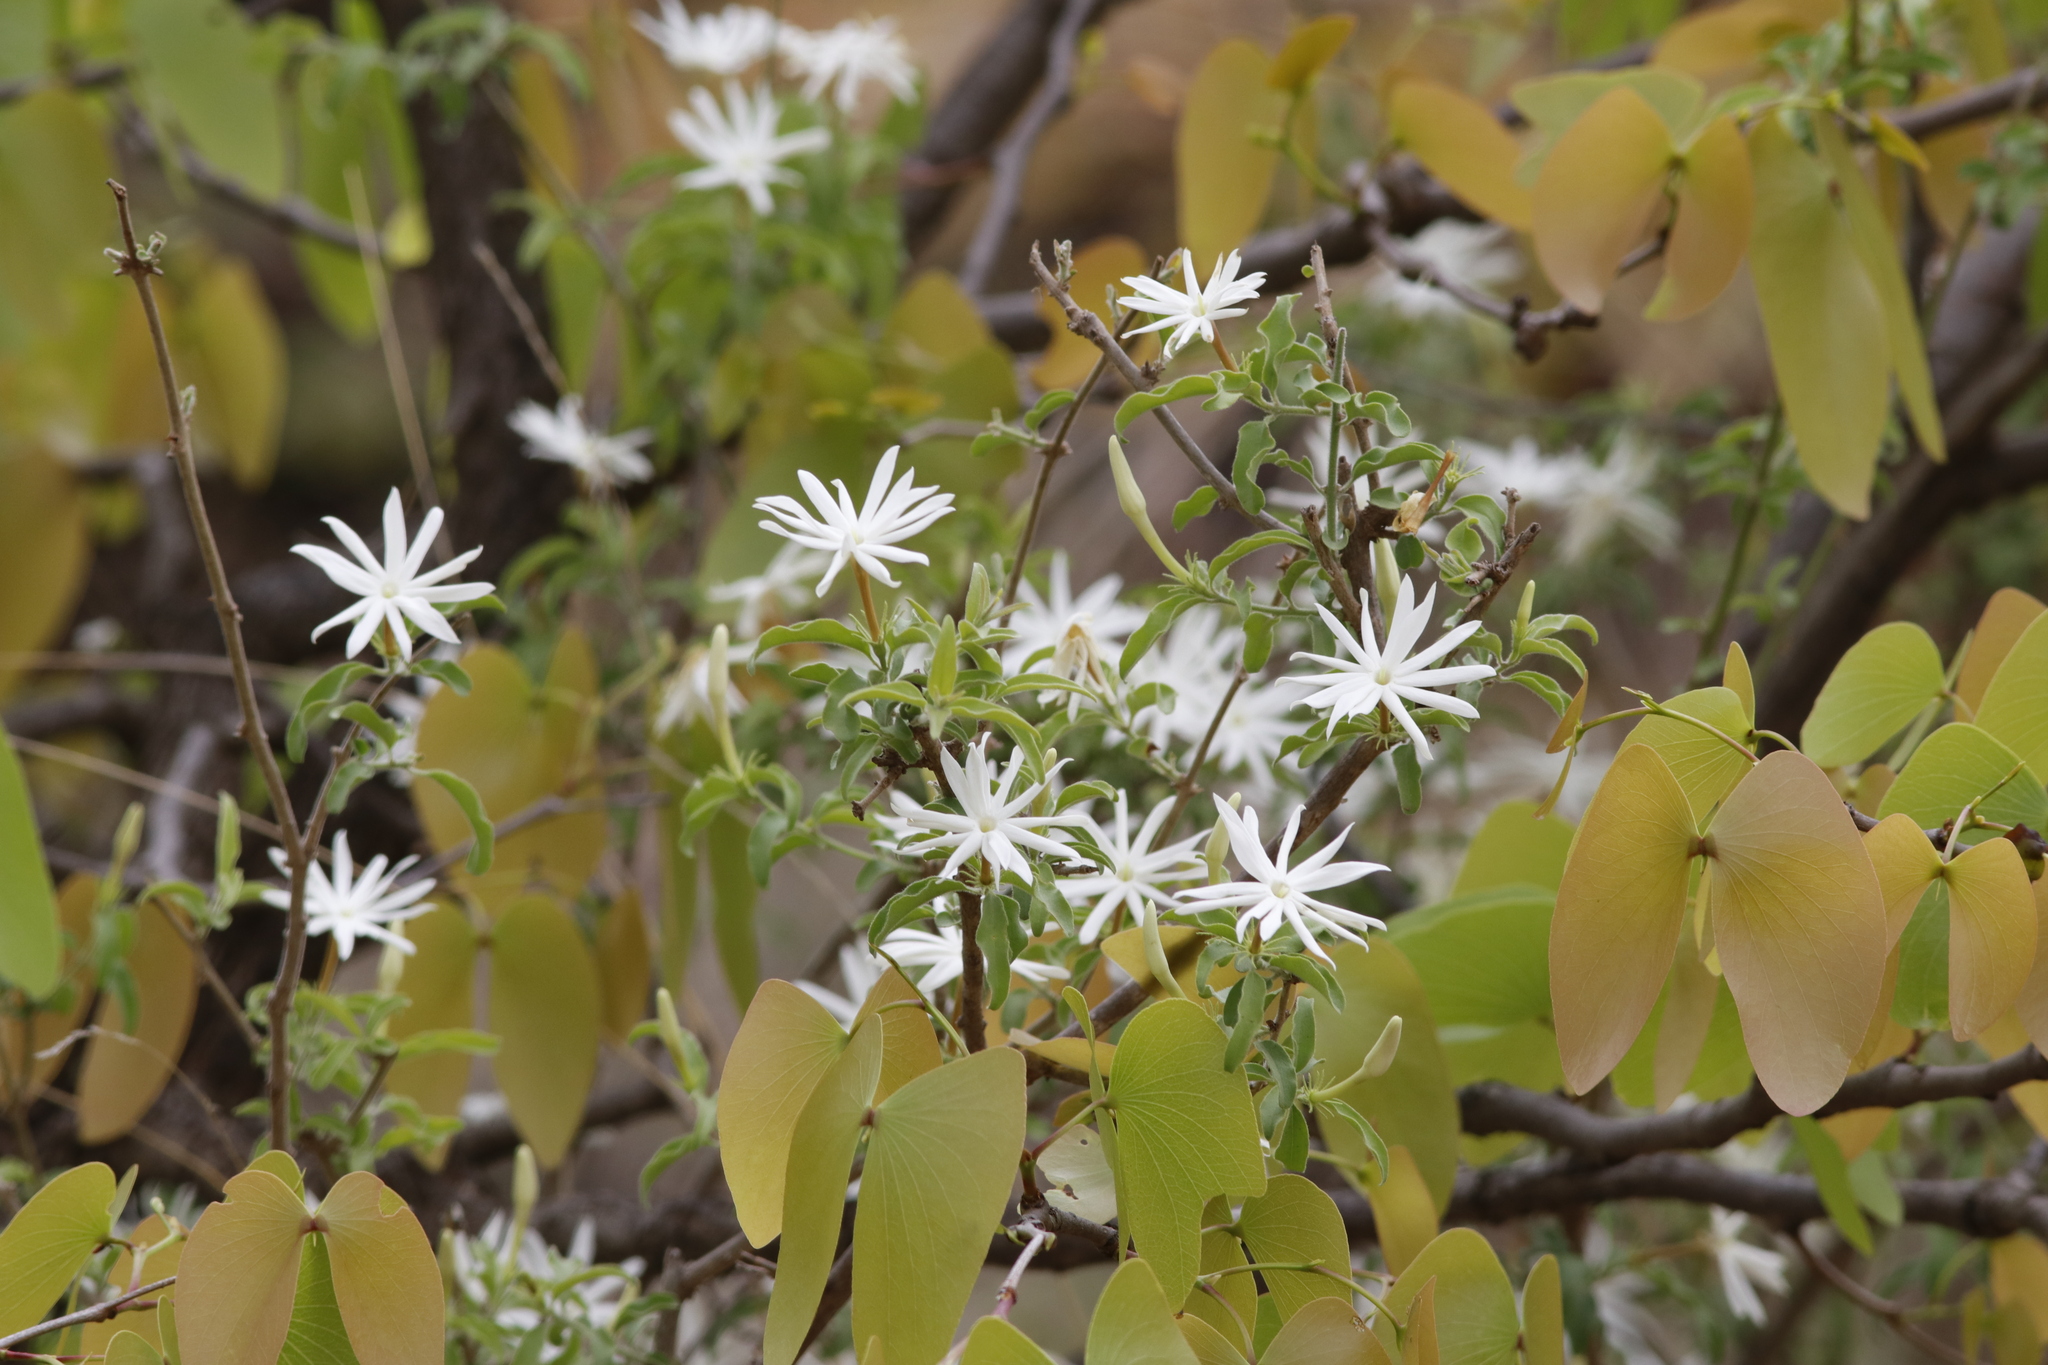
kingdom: Plantae
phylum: Tracheophyta
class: Magnoliopsida
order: Lamiales
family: Oleaceae
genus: Jasminum
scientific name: Jasminum stenolobum
